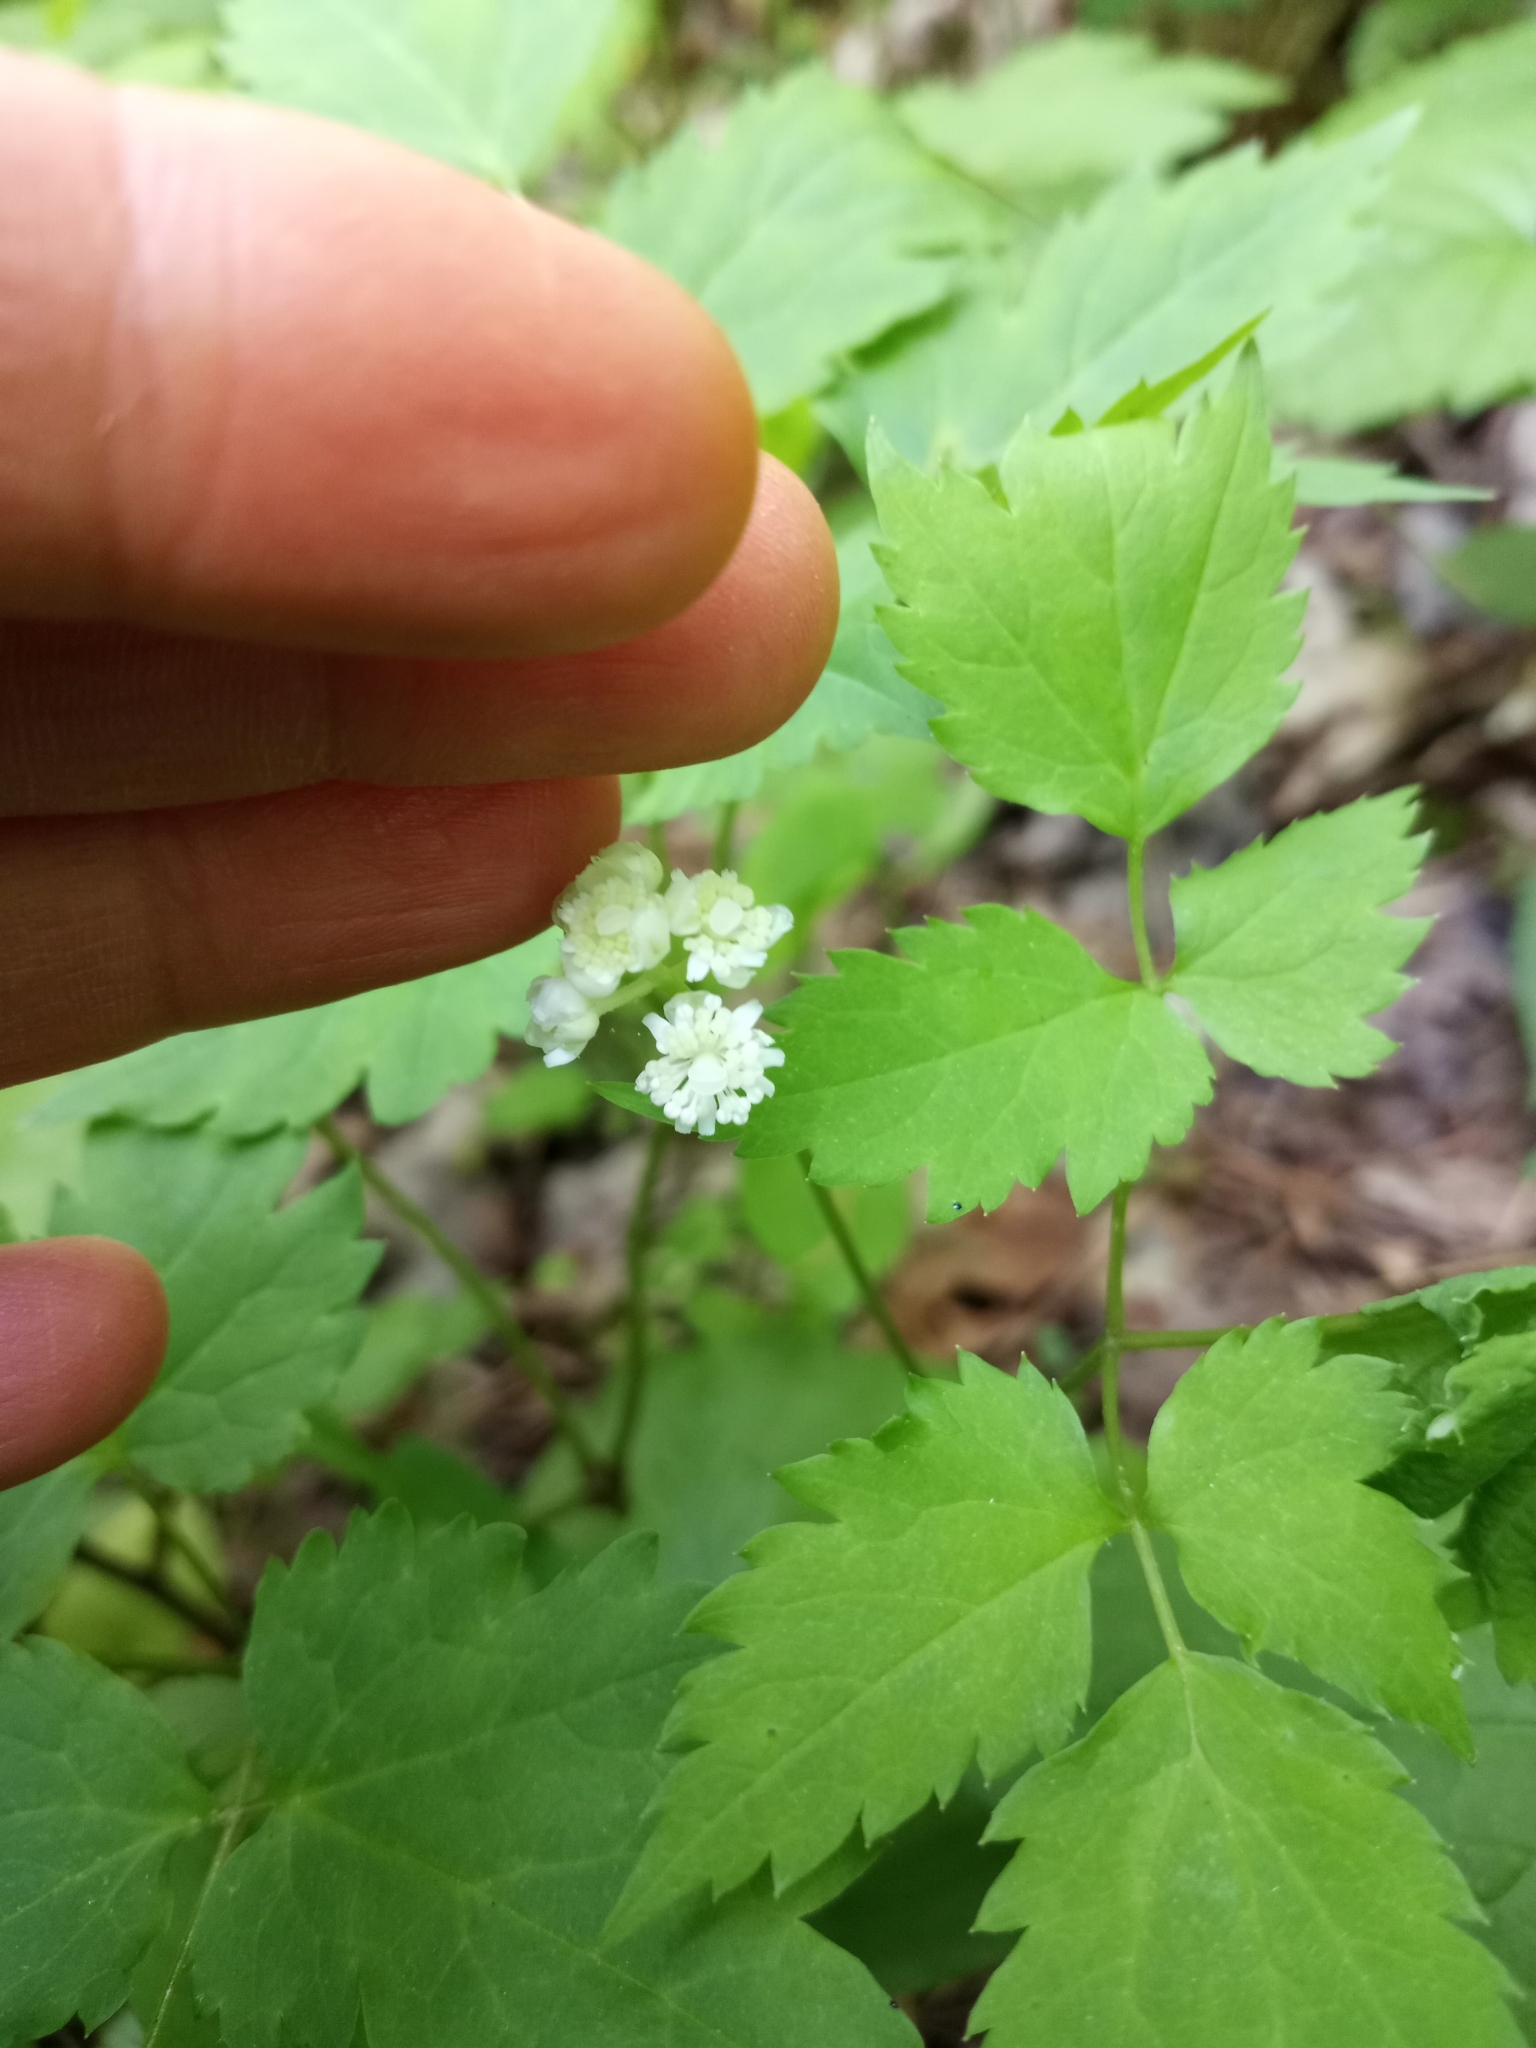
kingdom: Plantae
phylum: Tracheophyta
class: Magnoliopsida
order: Ranunculales
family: Ranunculaceae
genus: Actaea
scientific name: Actaea pachypoda
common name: Doll's-eyes
